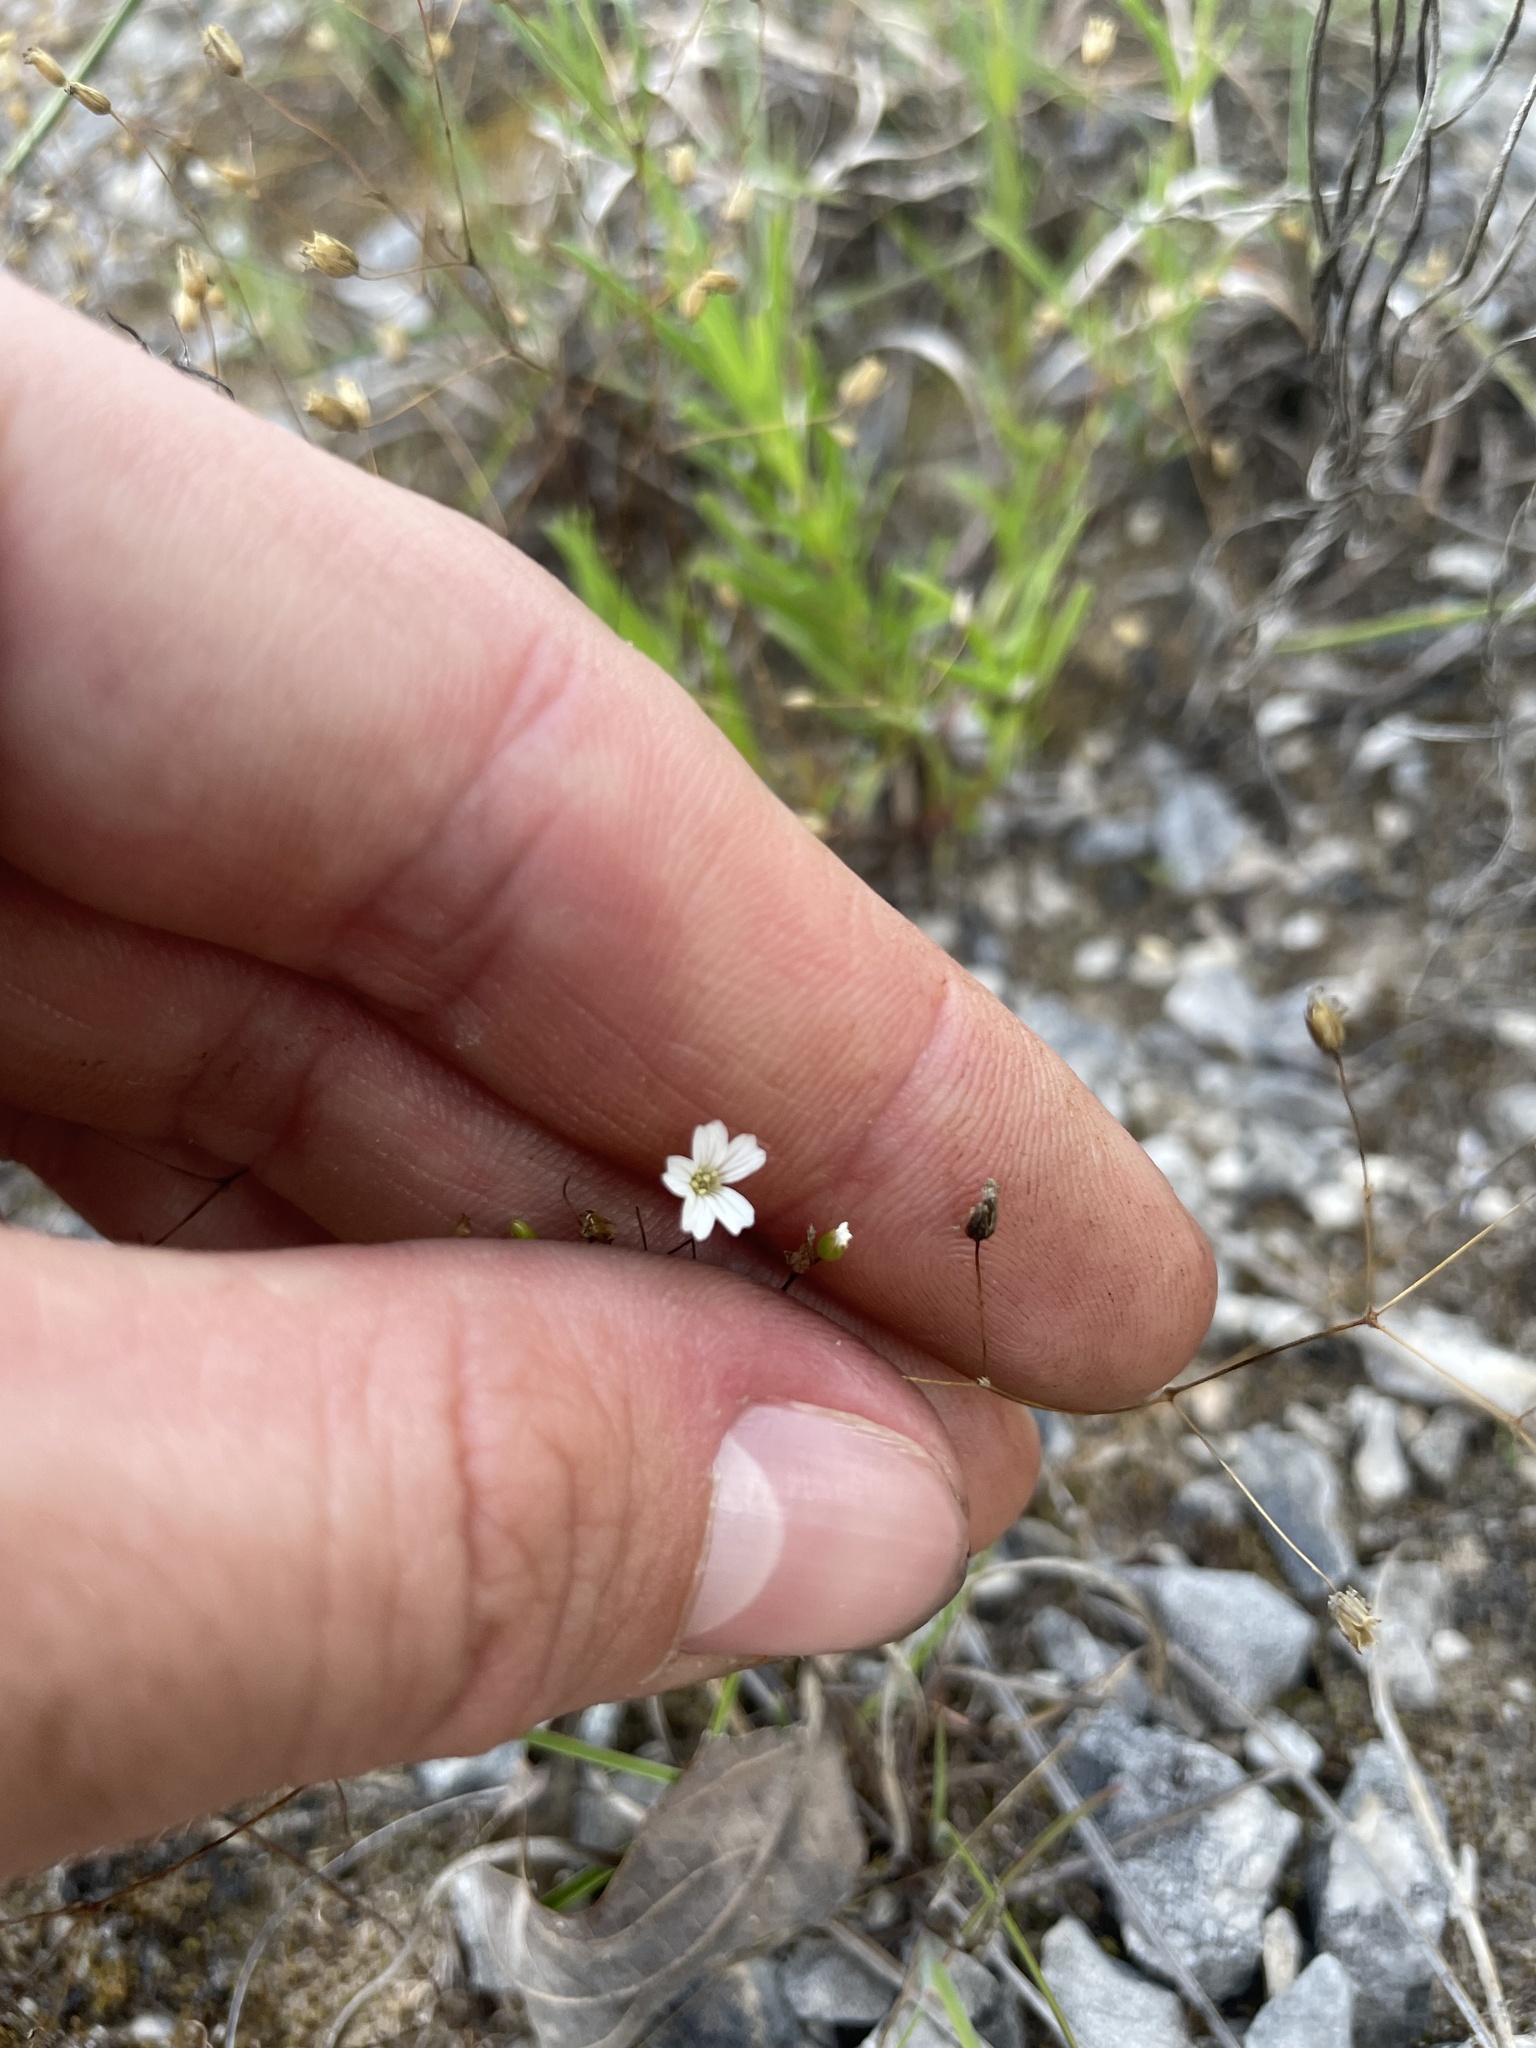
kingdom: Plantae
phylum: Tracheophyta
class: Magnoliopsida
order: Caryophyllales
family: Caryophyllaceae
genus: Mononeuria
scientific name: Mononeuria patula
